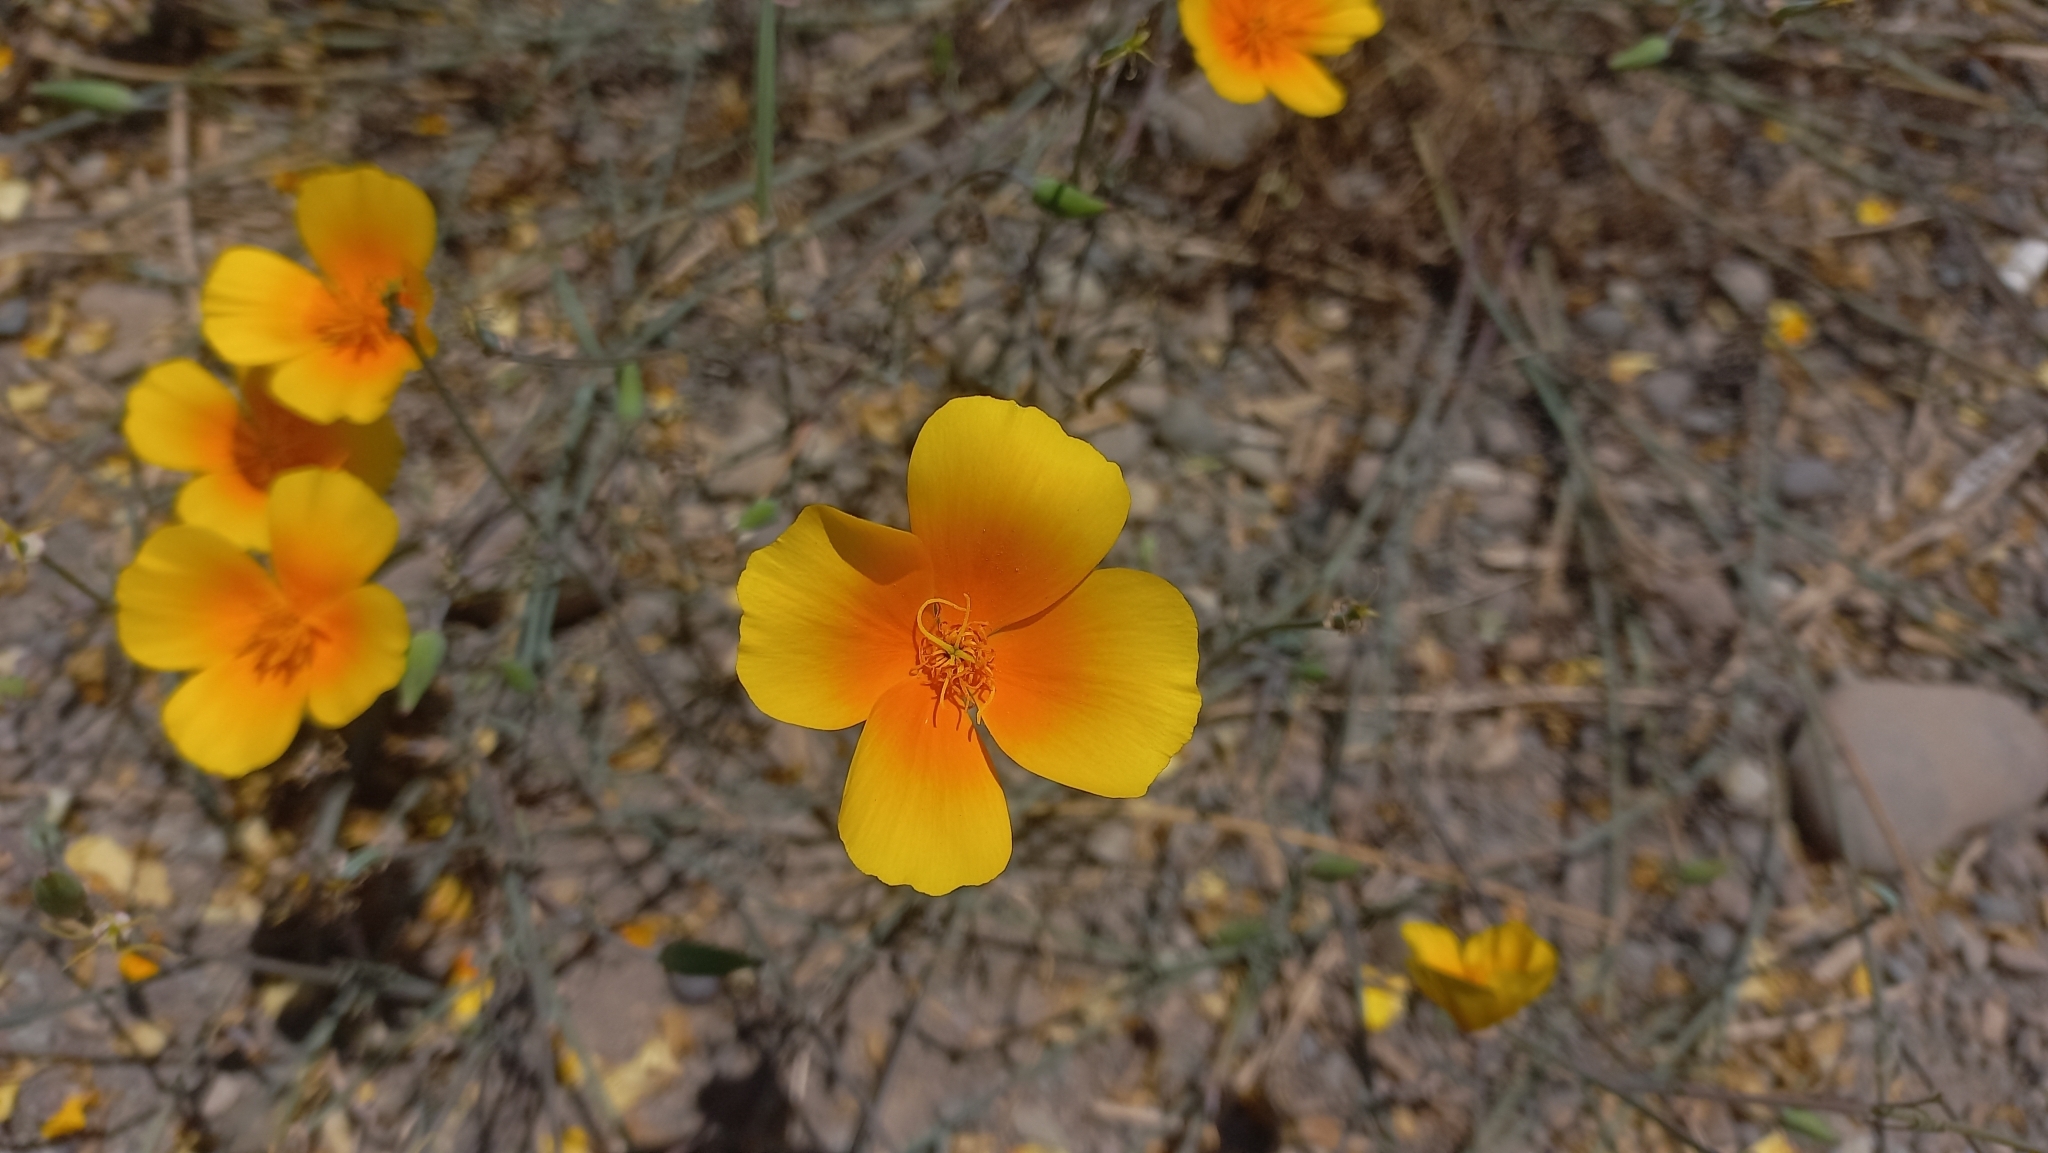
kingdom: Plantae
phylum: Tracheophyta
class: Magnoliopsida
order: Ranunculales
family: Papaveraceae
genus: Eschscholzia
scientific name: Eschscholzia californica
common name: California poppy
